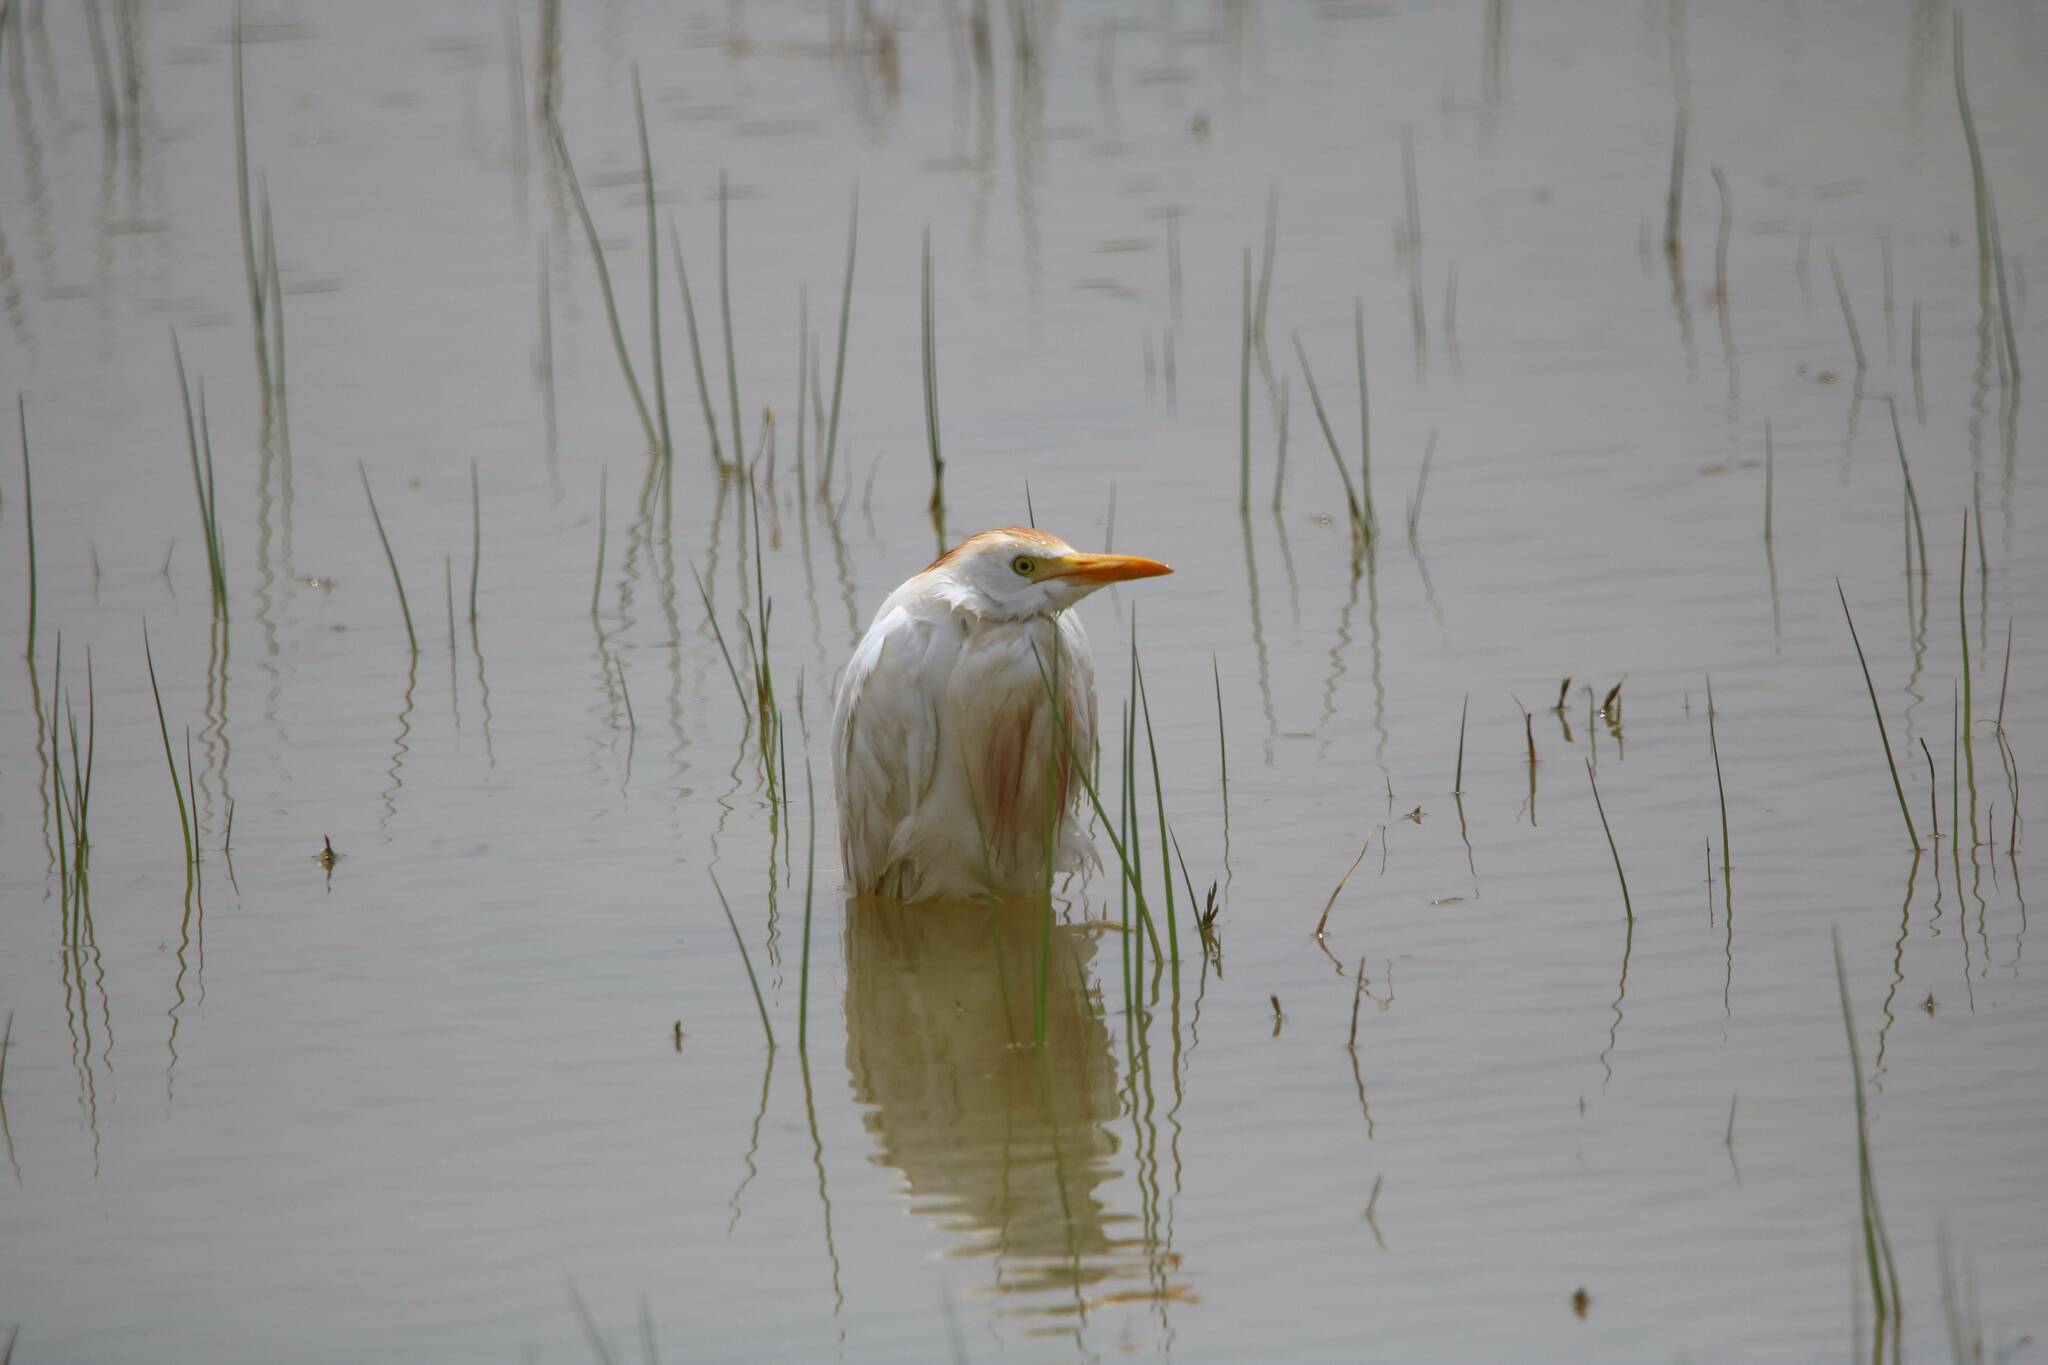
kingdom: Animalia
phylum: Chordata
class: Aves
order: Pelecaniformes
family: Ardeidae
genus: Bubulcus
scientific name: Bubulcus ibis
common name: Cattle egret
